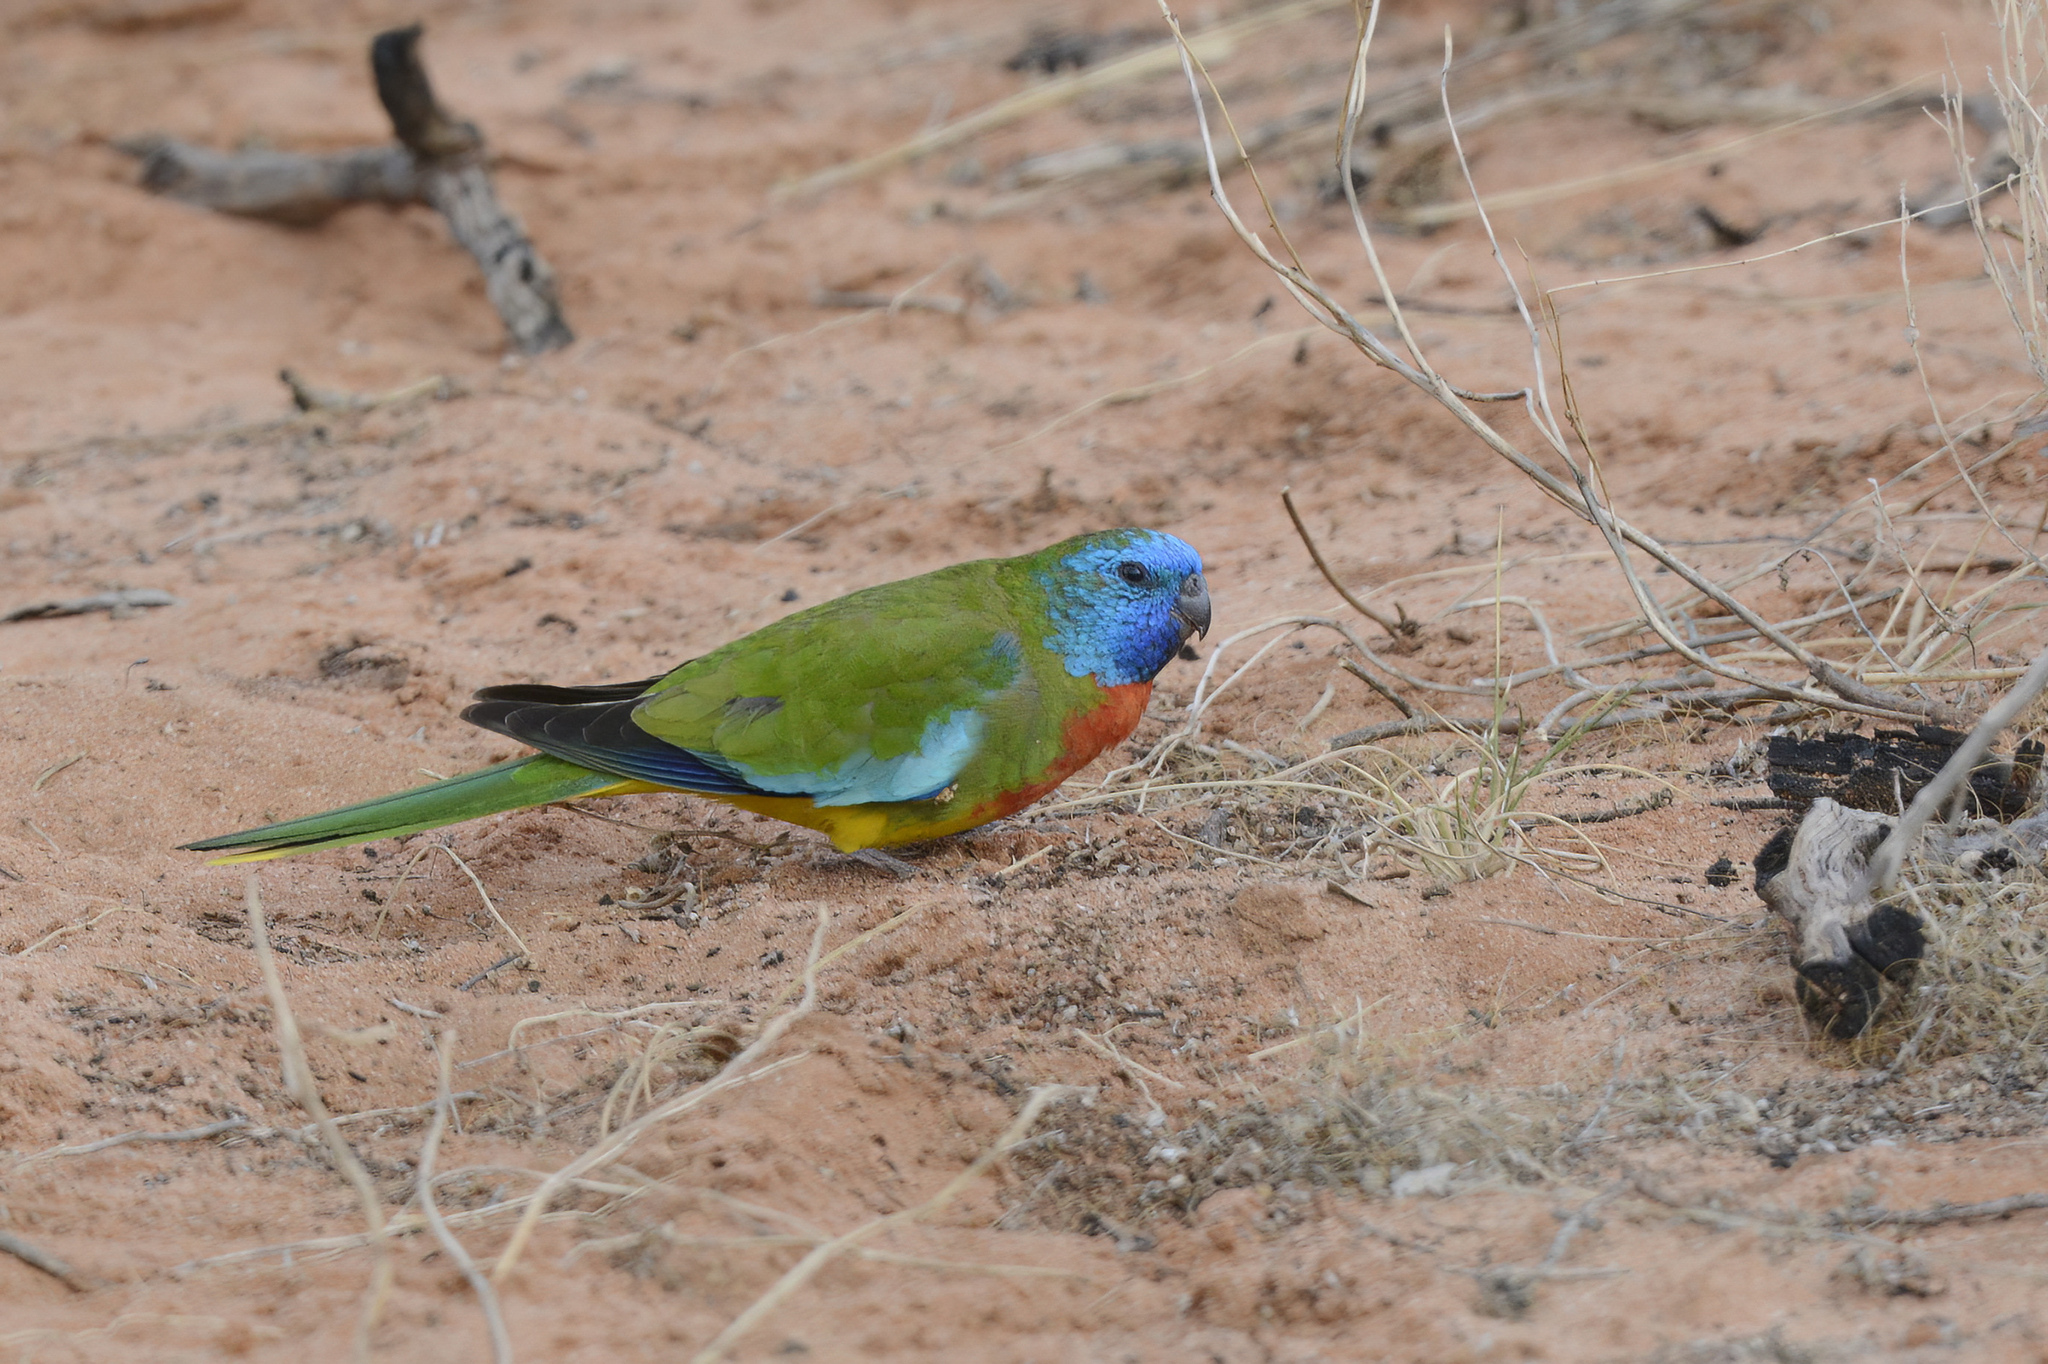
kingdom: Animalia
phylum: Chordata
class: Aves
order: Psittaciformes
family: Psittacidae
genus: Neophema
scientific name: Neophema splendida
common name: Scarlet-chested parrot
